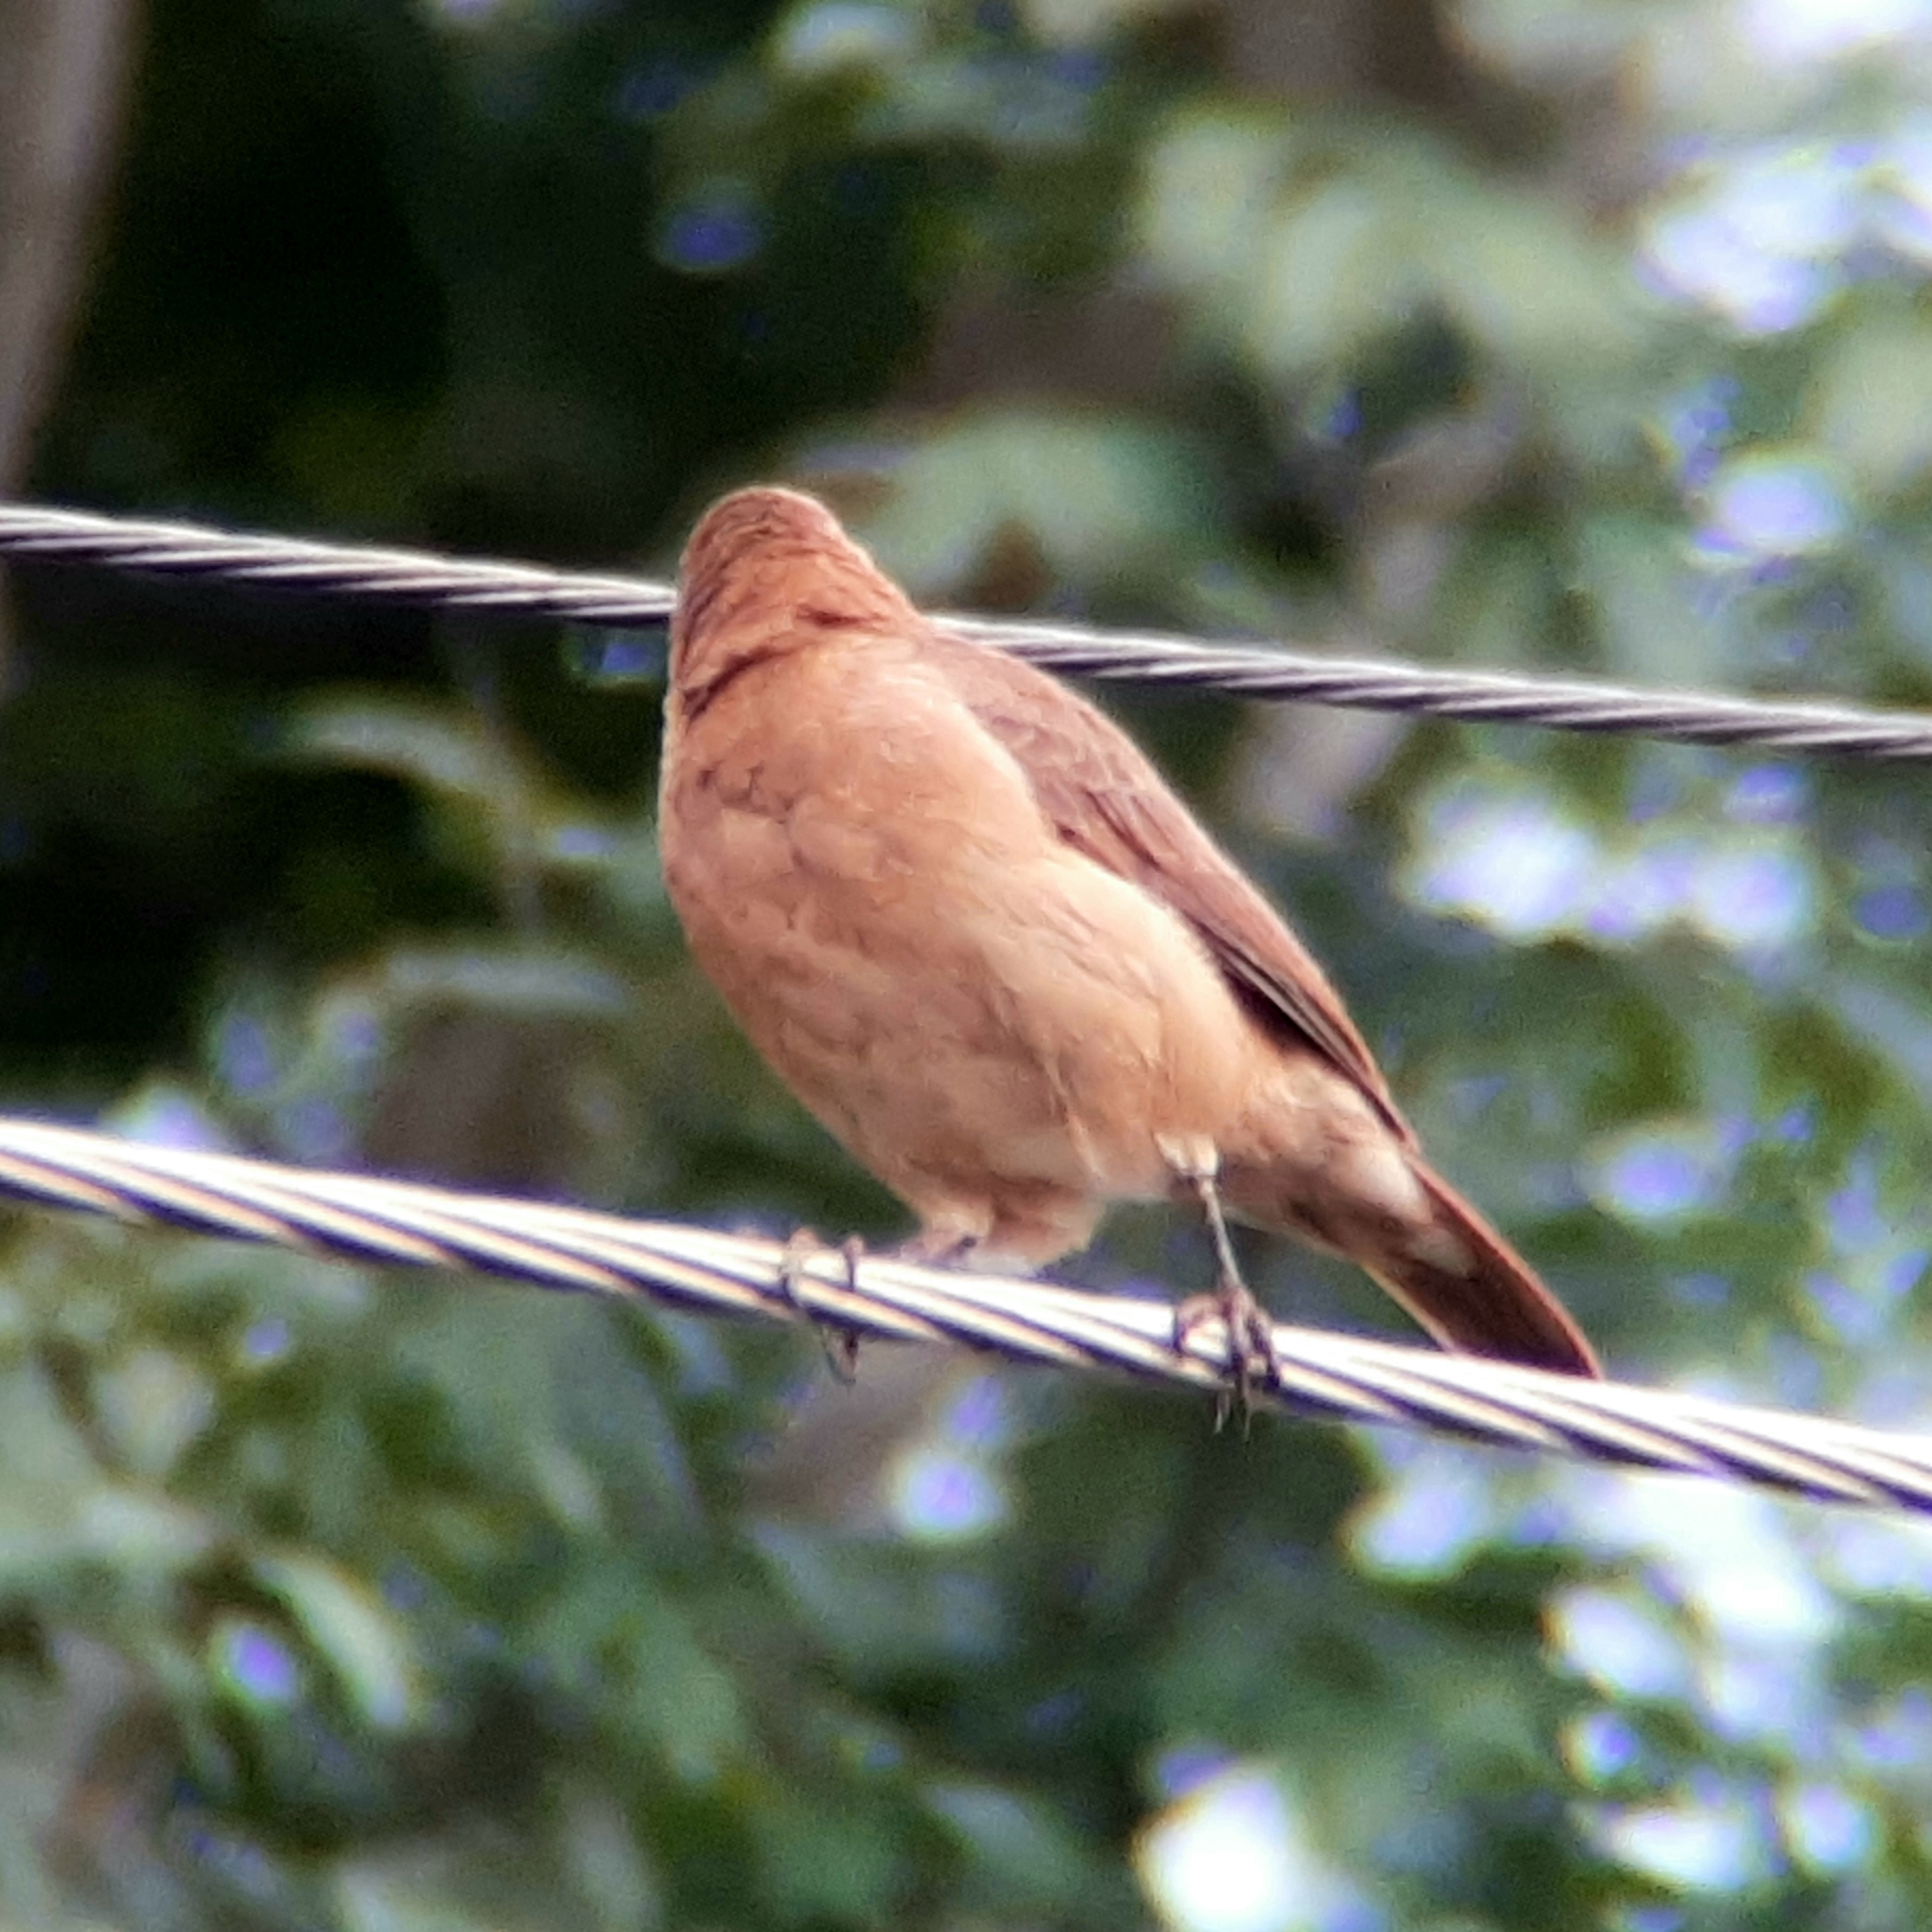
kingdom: Animalia
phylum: Chordata
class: Aves
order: Passeriformes
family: Furnariidae
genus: Furnarius
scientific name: Furnarius rufus
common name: Rufous hornero
